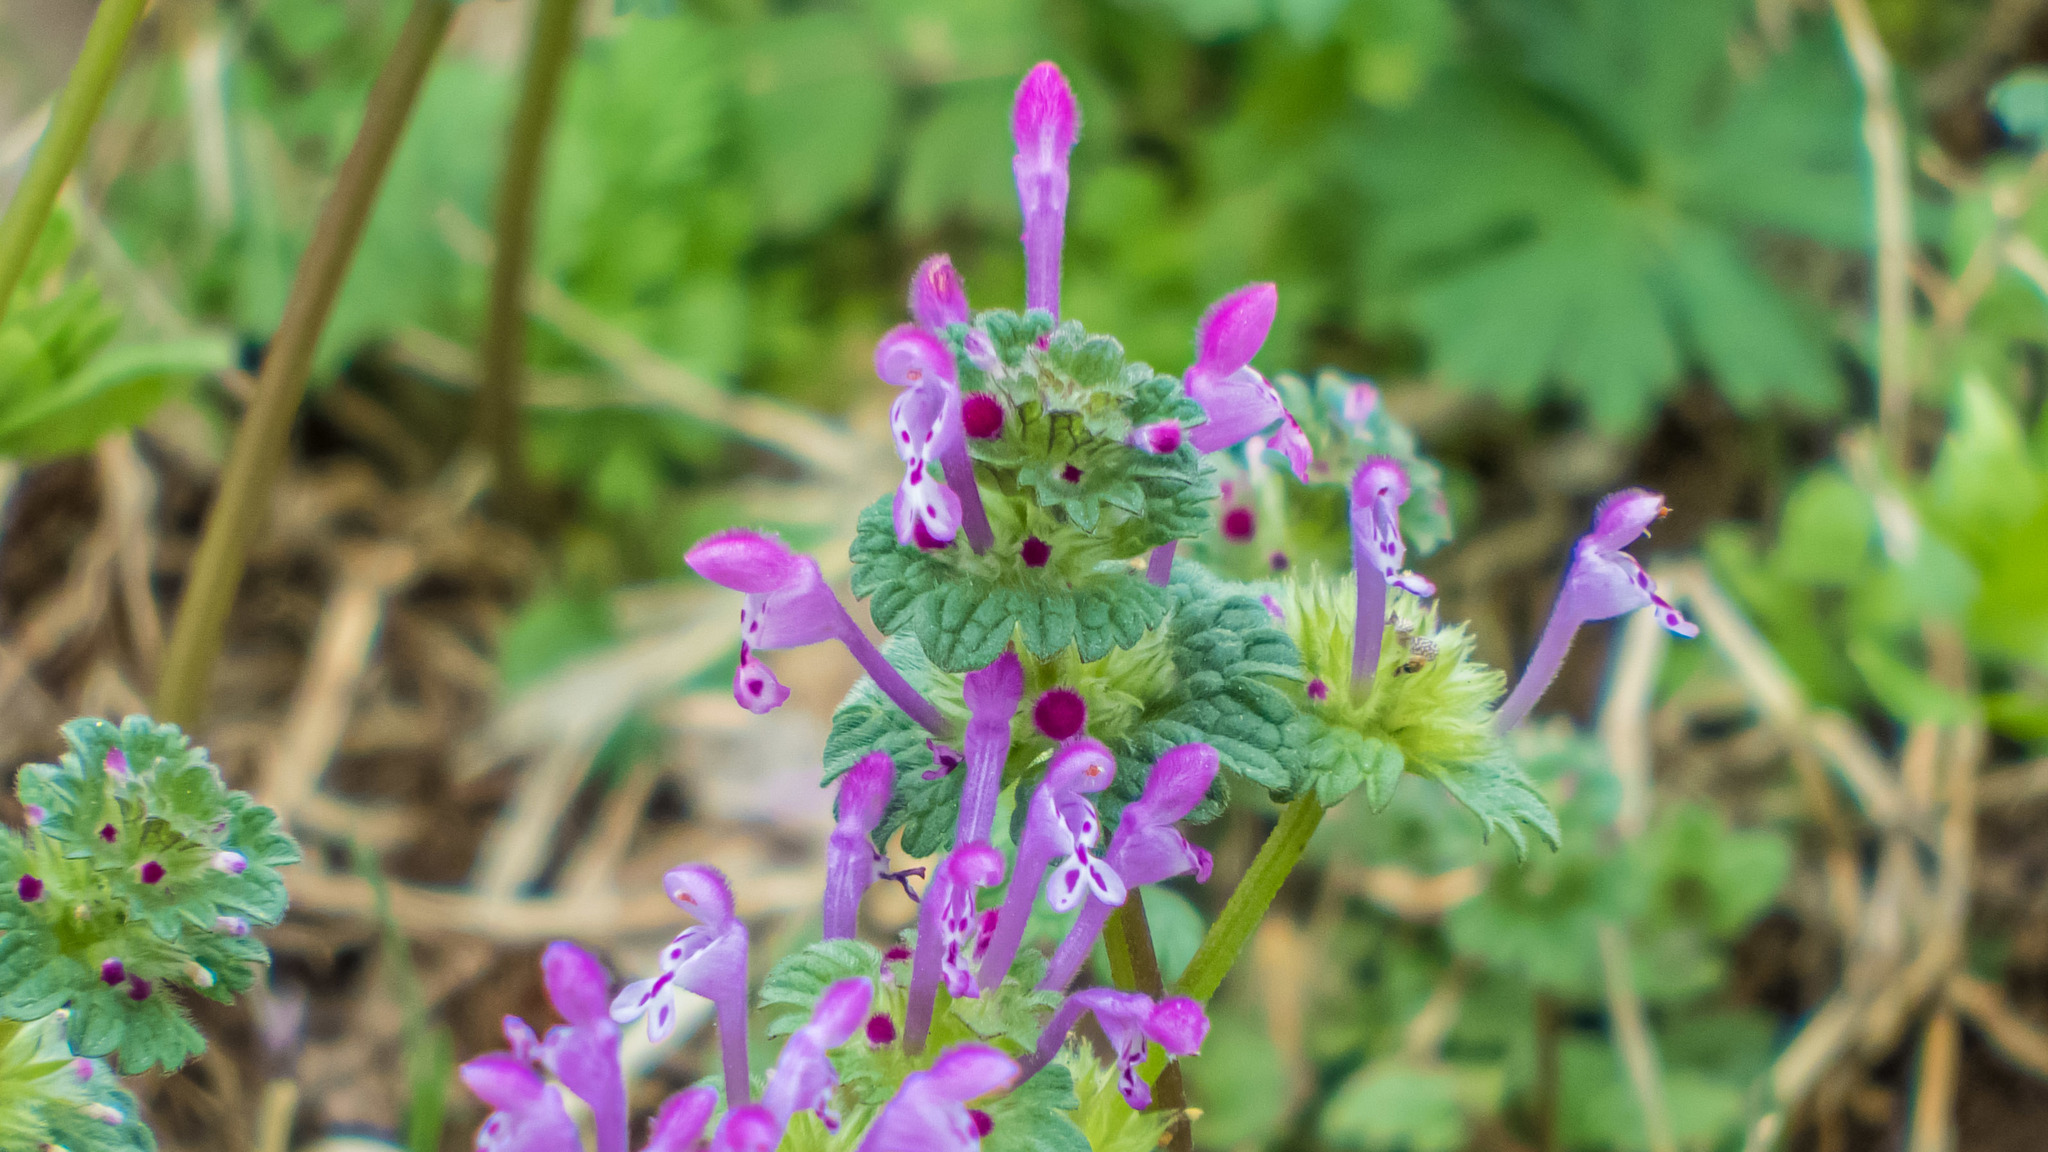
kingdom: Plantae
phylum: Tracheophyta
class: Magnoliopsida
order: Lamiales
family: Lamiaceae
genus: Lamium
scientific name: Lamium amplexicaule
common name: Henbit dead-nettle
